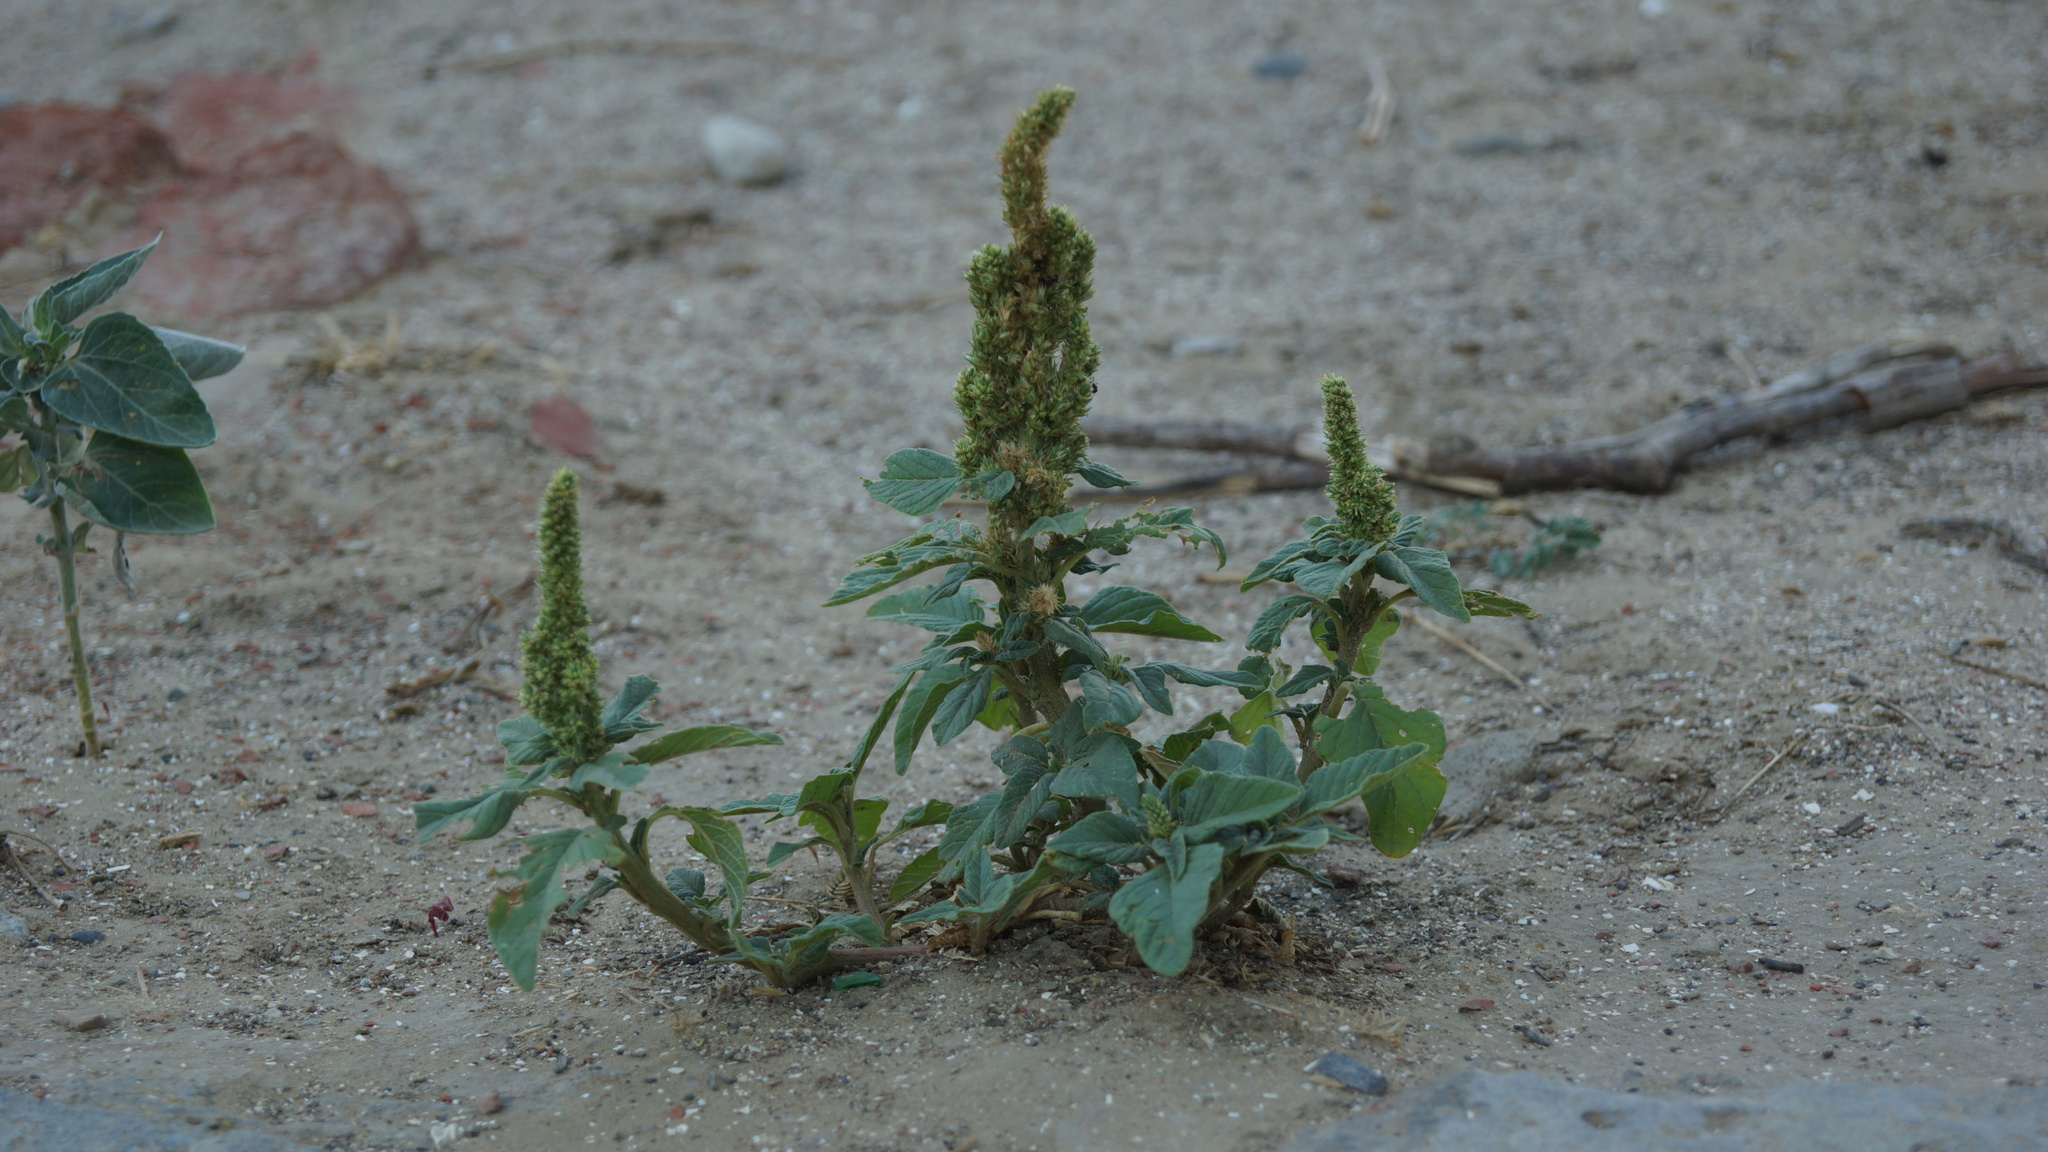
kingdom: Plantae
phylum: Tracheophyta
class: Magnoliopsida
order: Caryophyllales
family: Amaranthaceae
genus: Amaranthus
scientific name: Amaranthus retroflexus
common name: Redroot amaranth
